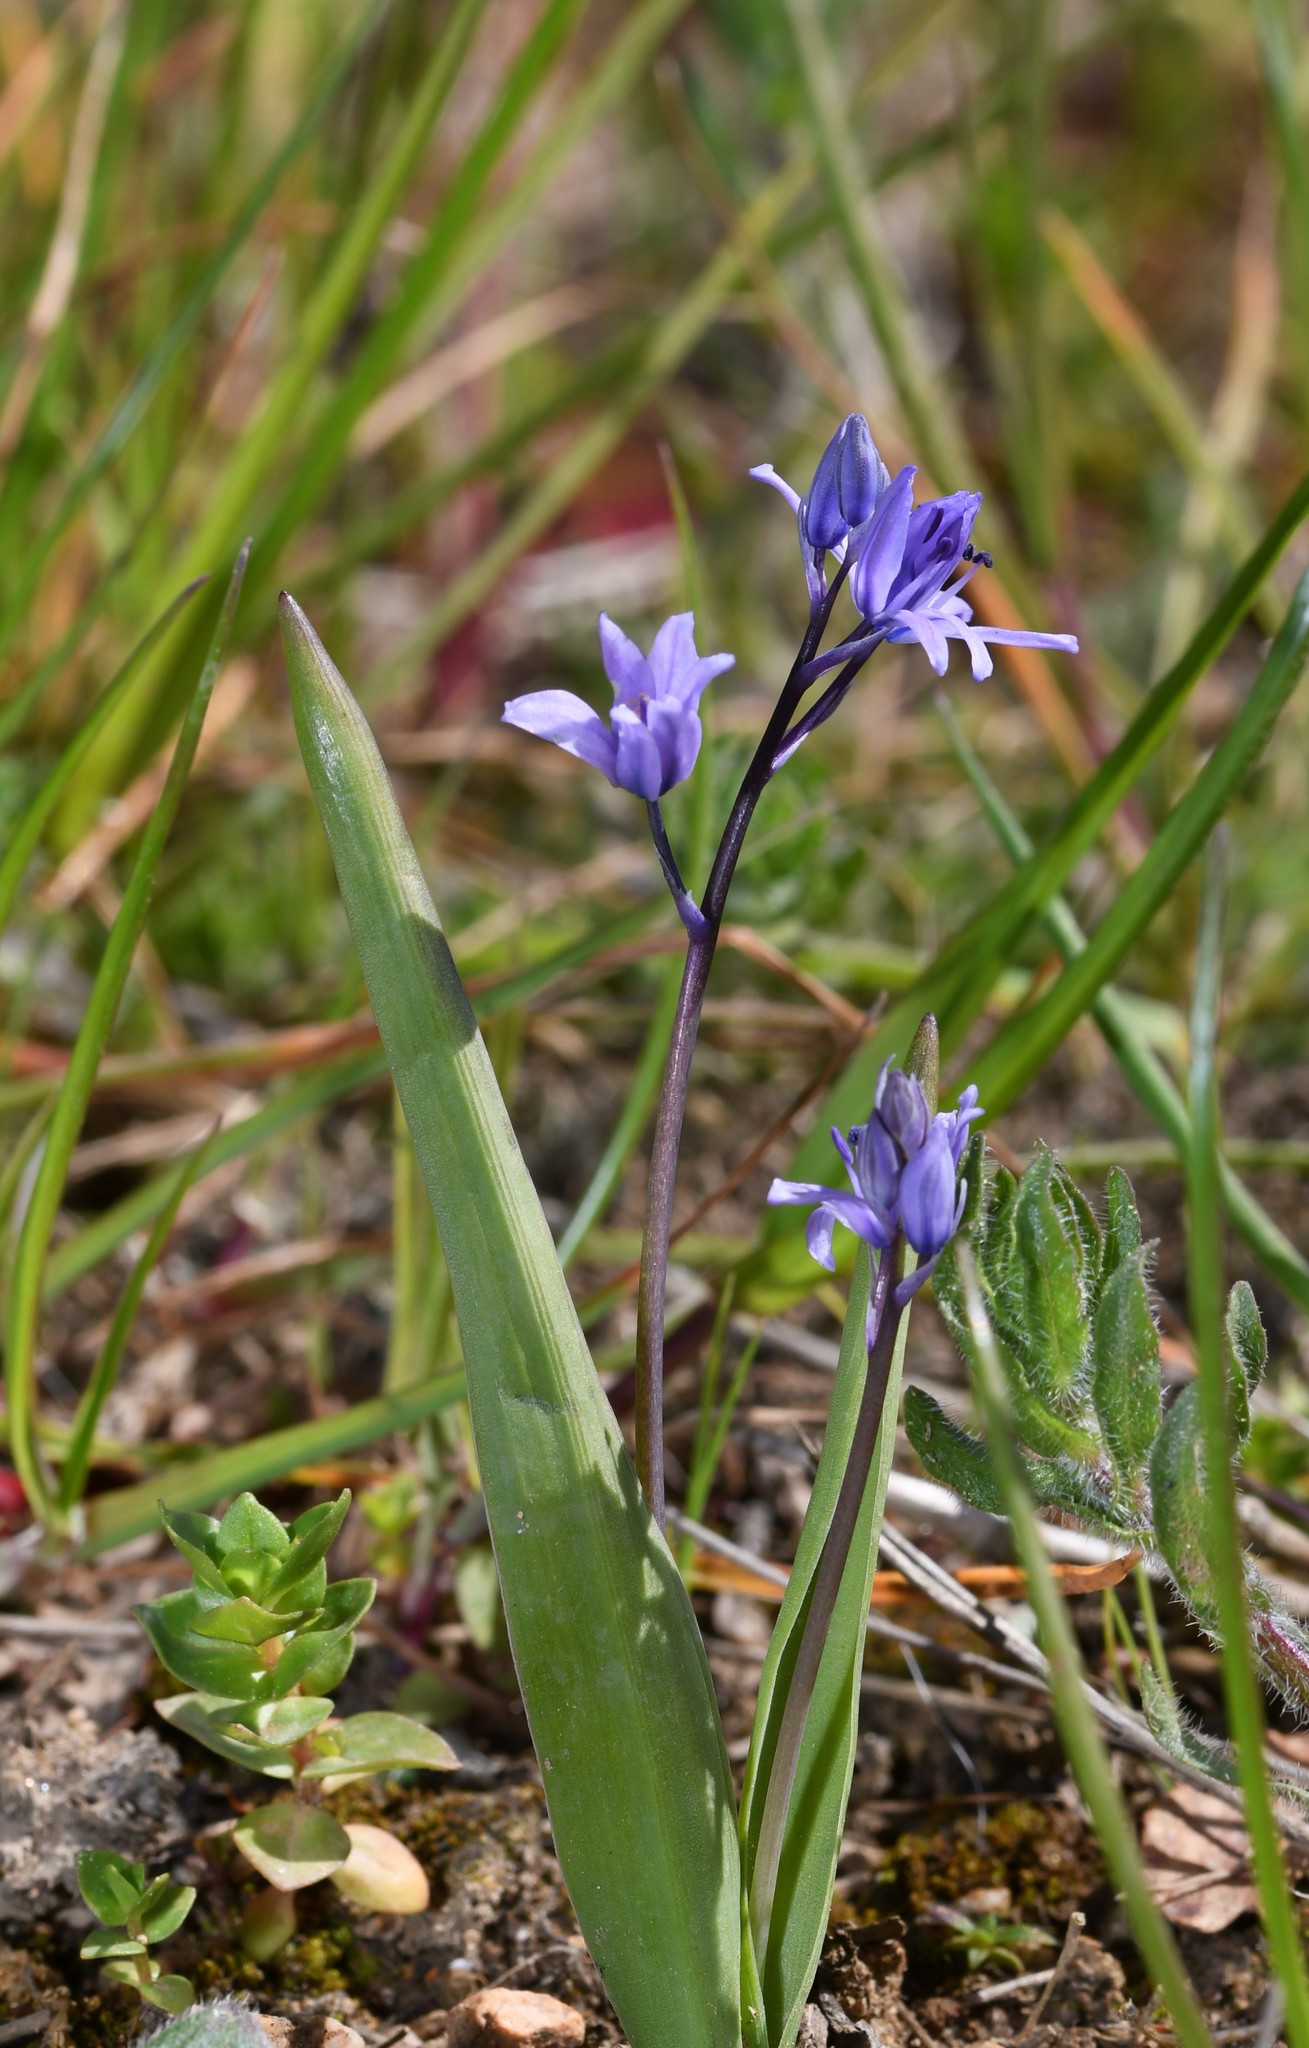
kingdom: Plantae
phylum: Tracheophyta
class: Liliopsida
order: Asparagales
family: Asparagaceae
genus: Scilla
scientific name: Scilla monophyllos
